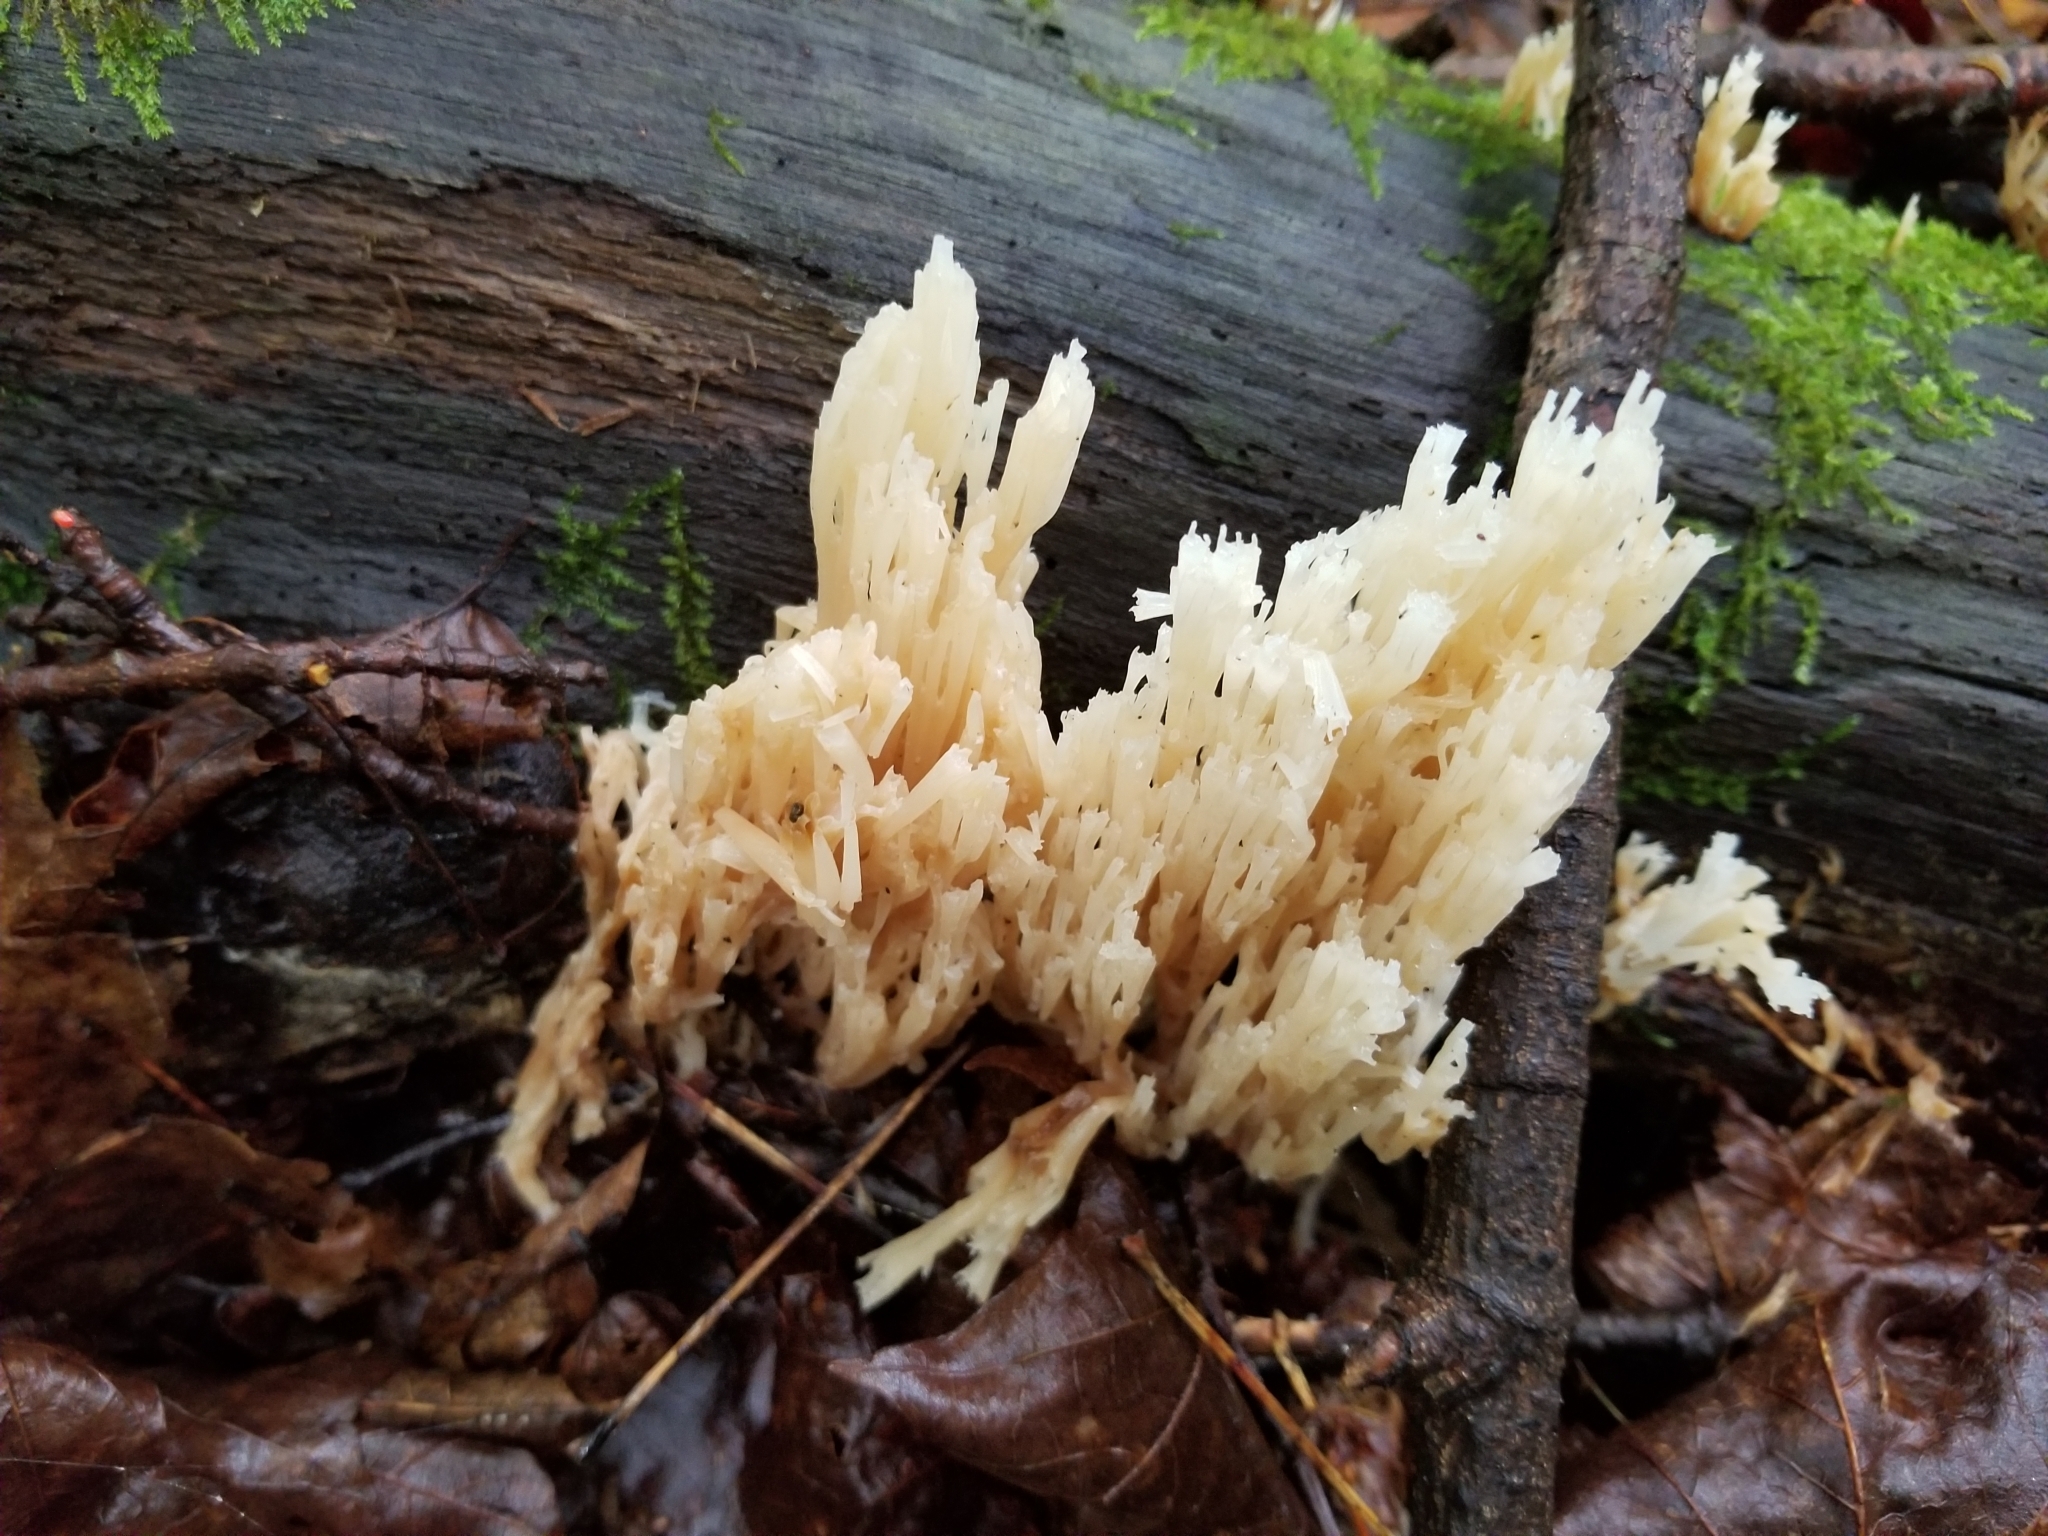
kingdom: Fungi
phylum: Basidiomycota
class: Agaricomycetes
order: Russulales
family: Auriscalpiaceae
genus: Artomyces
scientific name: Artomyces pyxidatus
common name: Crown-tipped coral fungus
